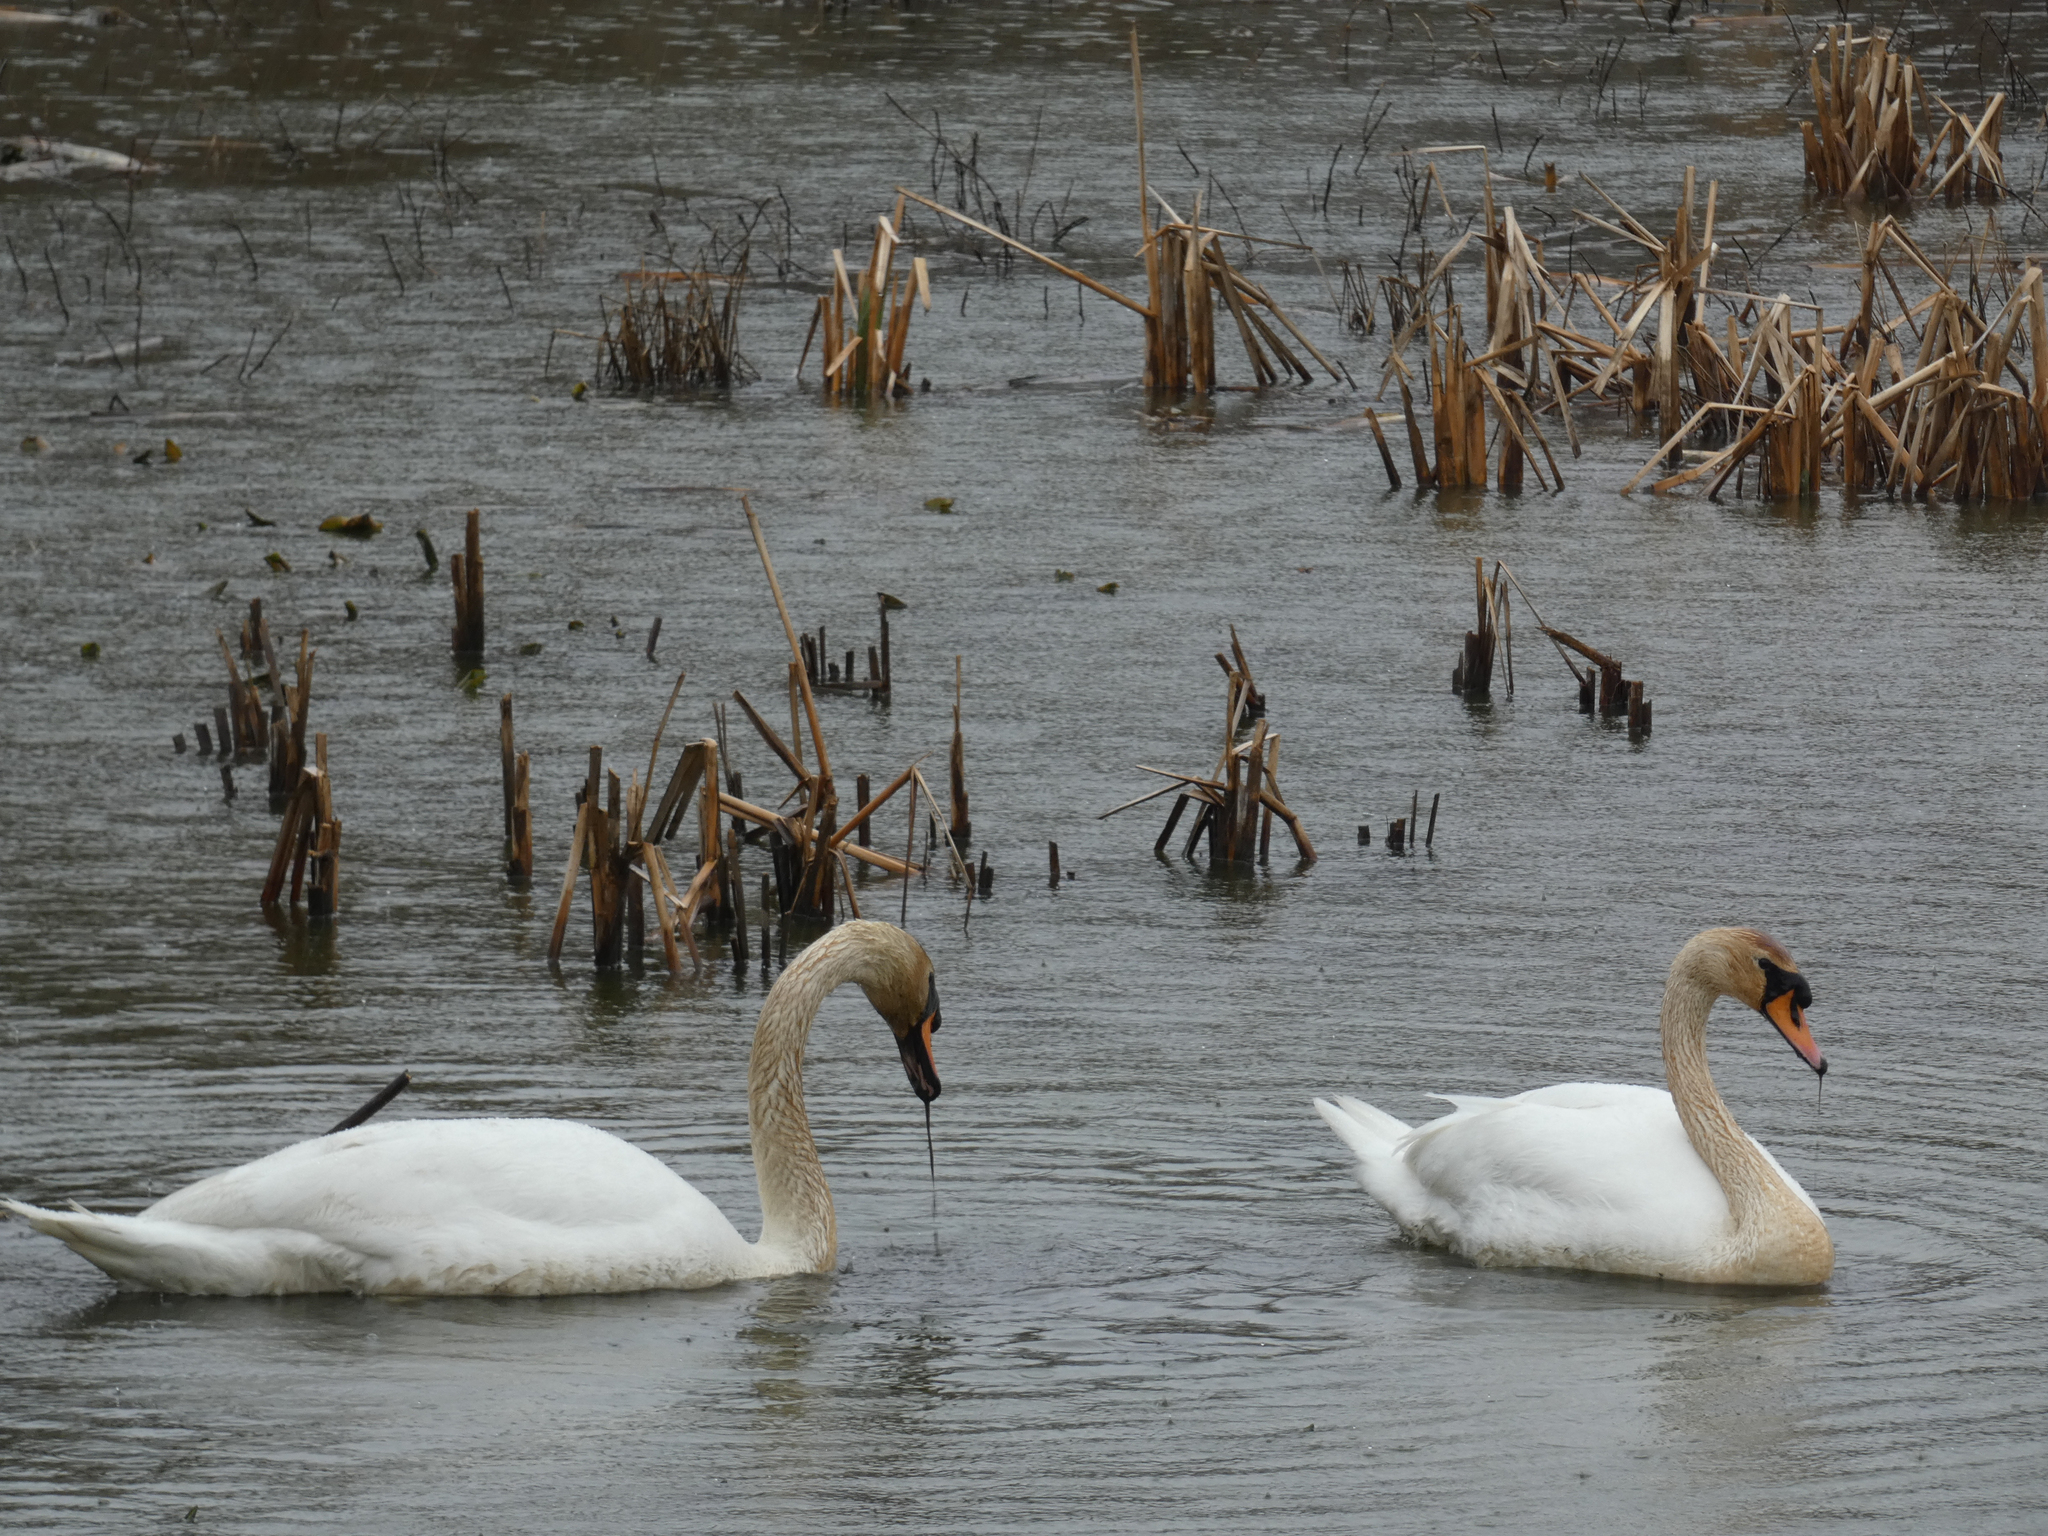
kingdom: Animalia
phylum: Chordata
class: Aves
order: Anseriformes
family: Anatidae
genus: Cygnus
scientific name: Cygnus olor
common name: Mute swan
